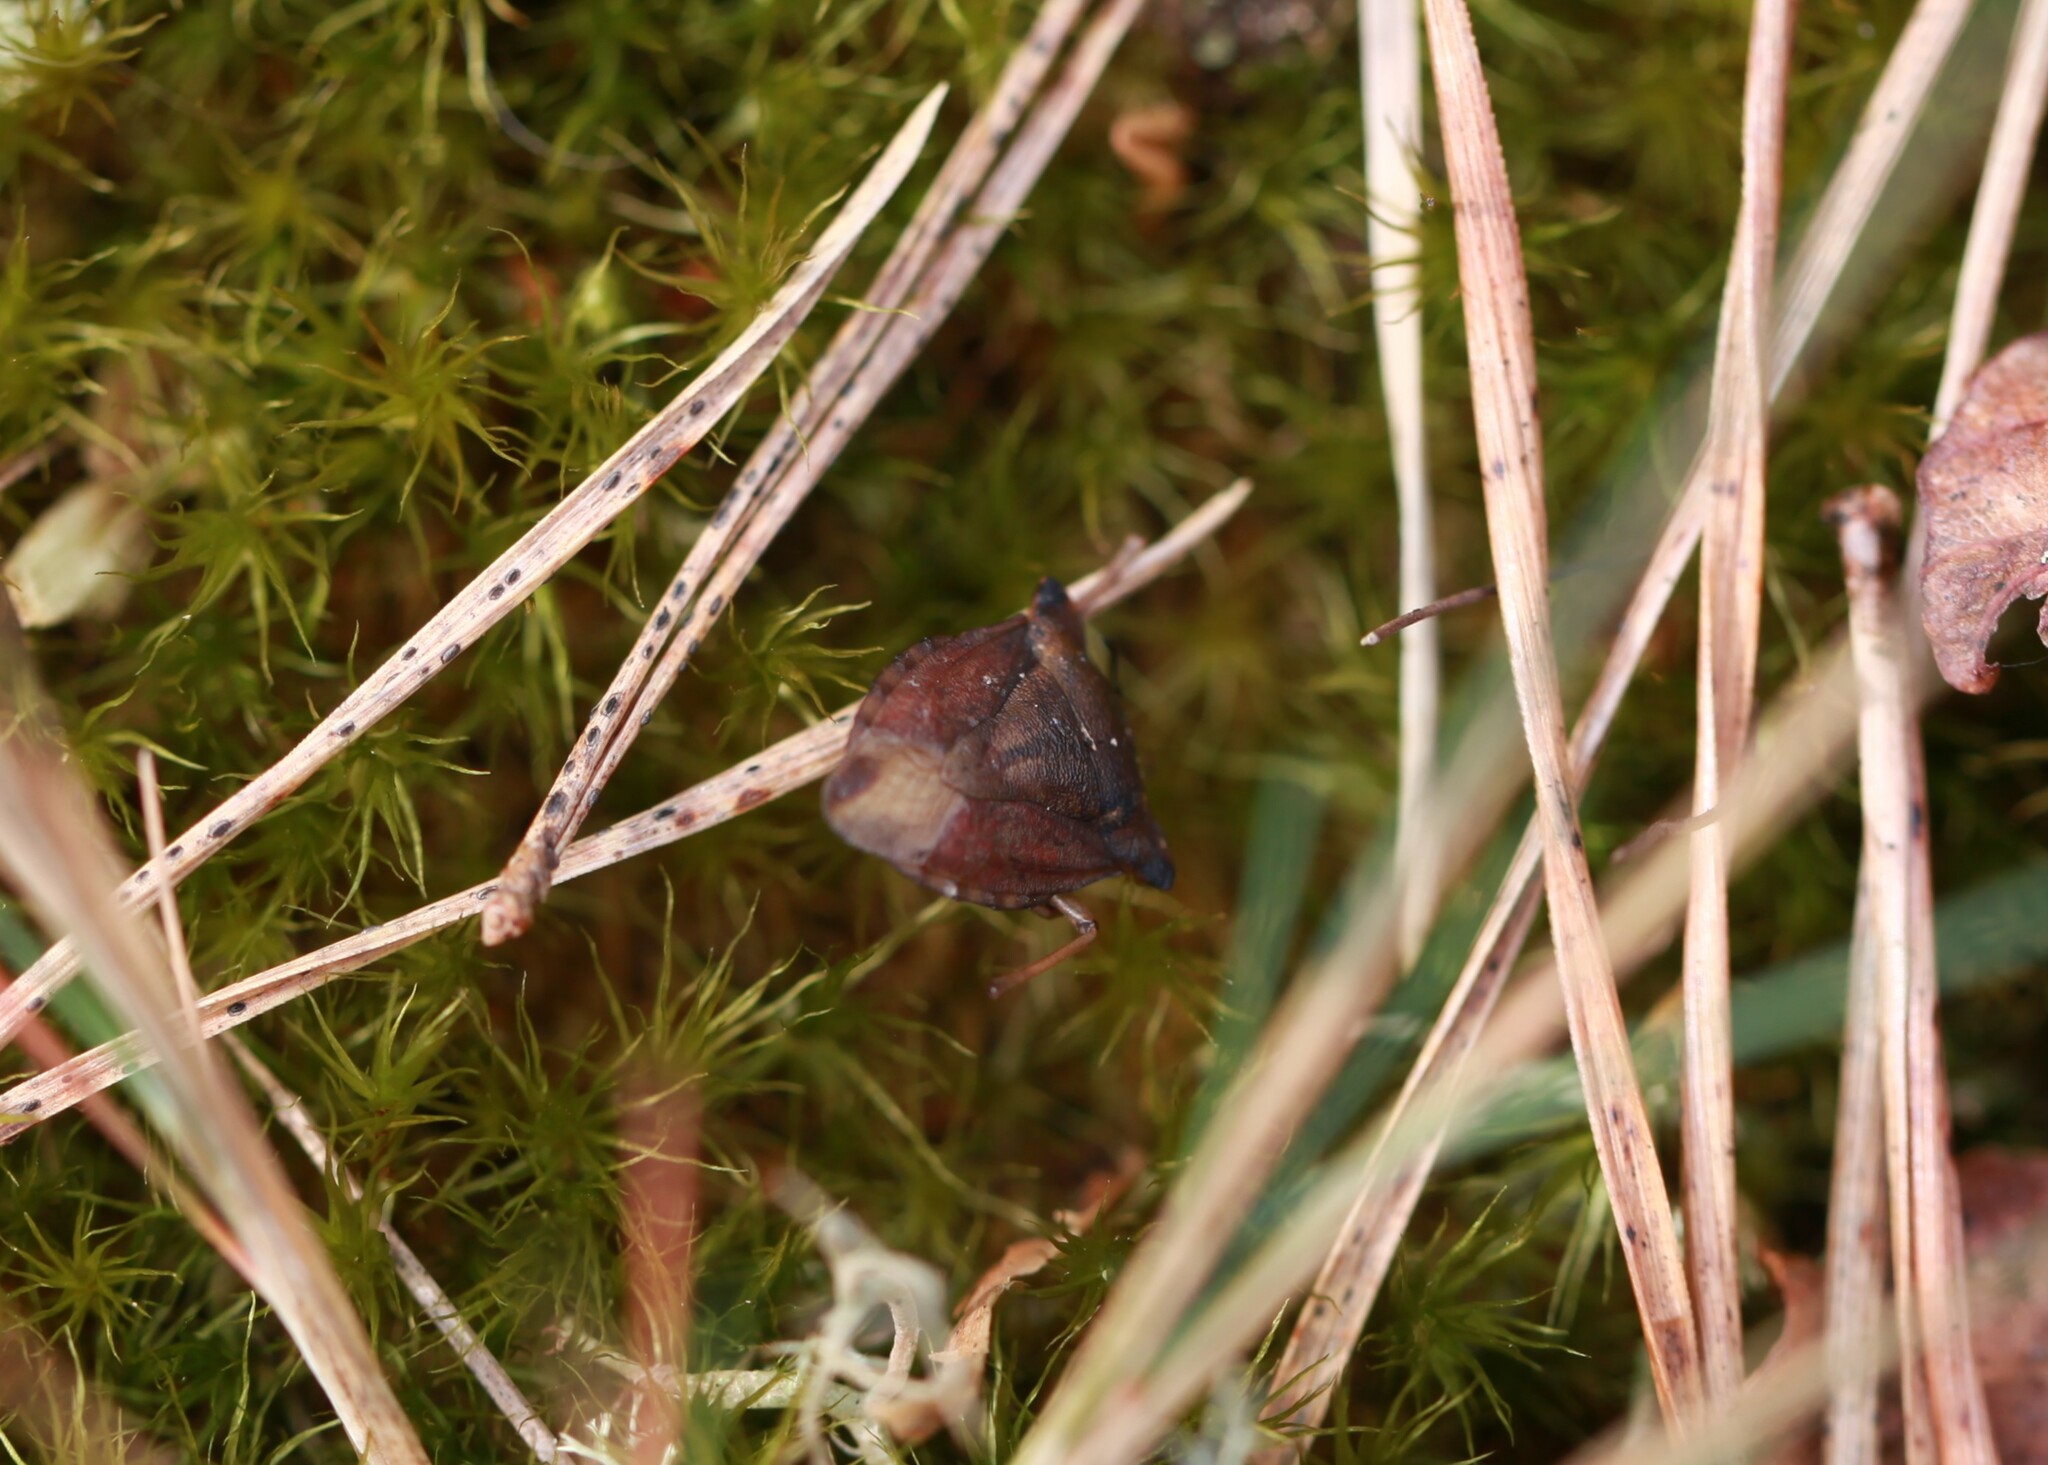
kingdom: Animalia
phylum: Arthropoda
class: Insecta
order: Hemiptera
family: Pentatomidae
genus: Carpocoris
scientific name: Carpocoris fuscispinus
